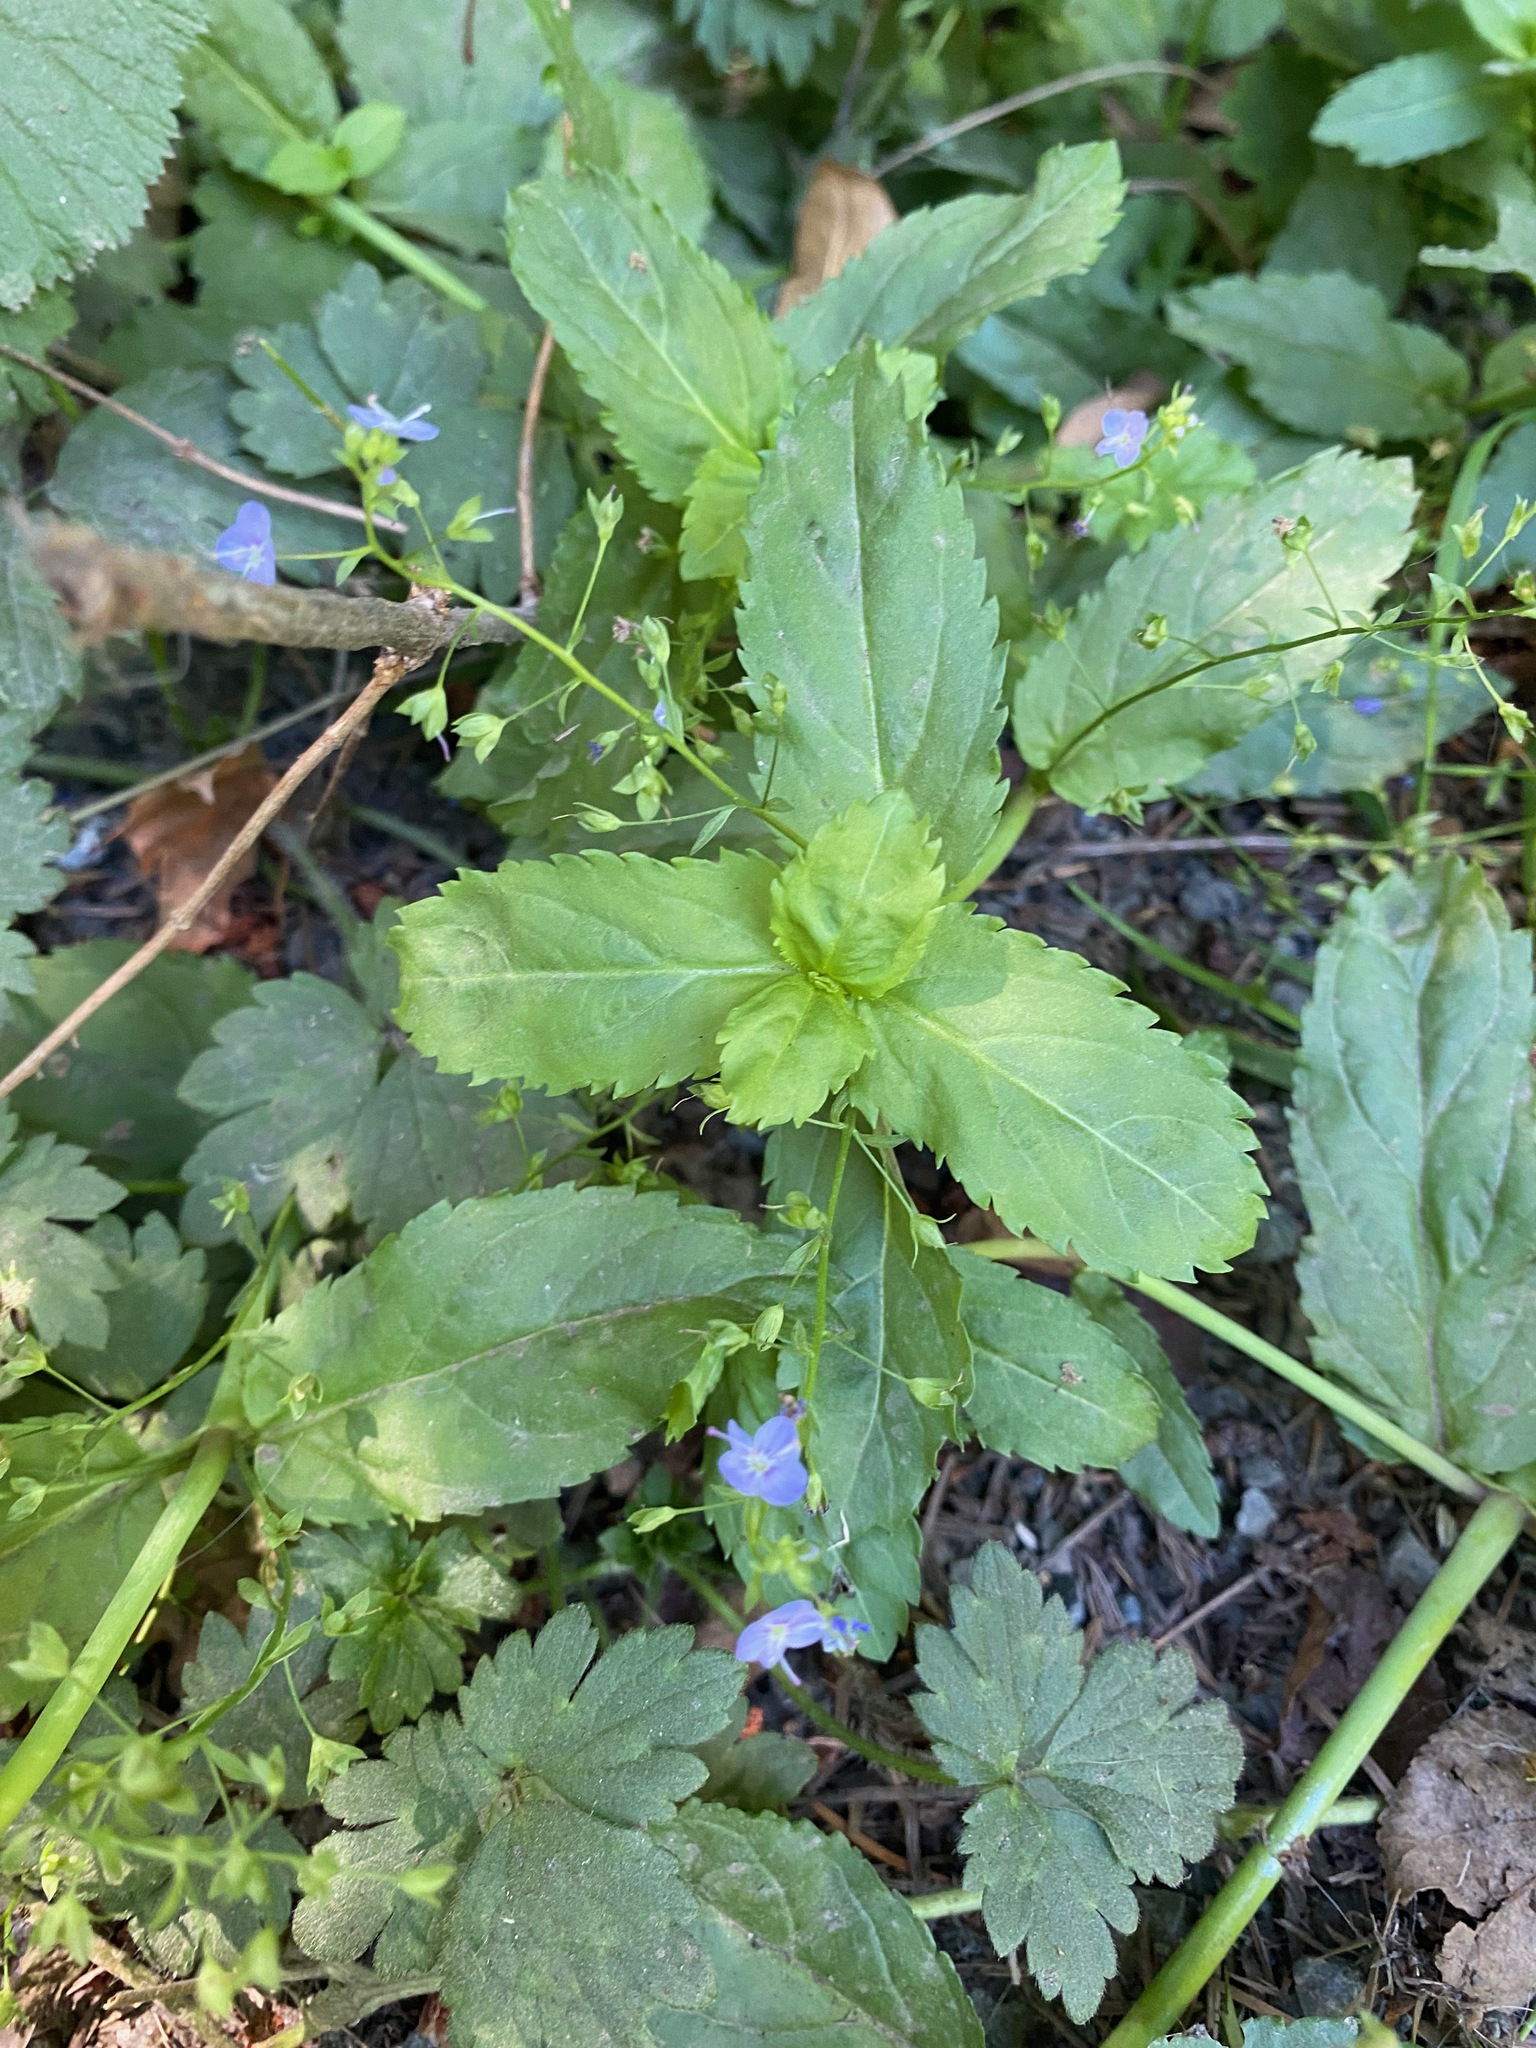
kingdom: Plantae
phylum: Tracheophyta
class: Magnoliopsida
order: Lamiales
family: Plantaginaceae
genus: Veronica
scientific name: Veronica americana
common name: American brooklime
